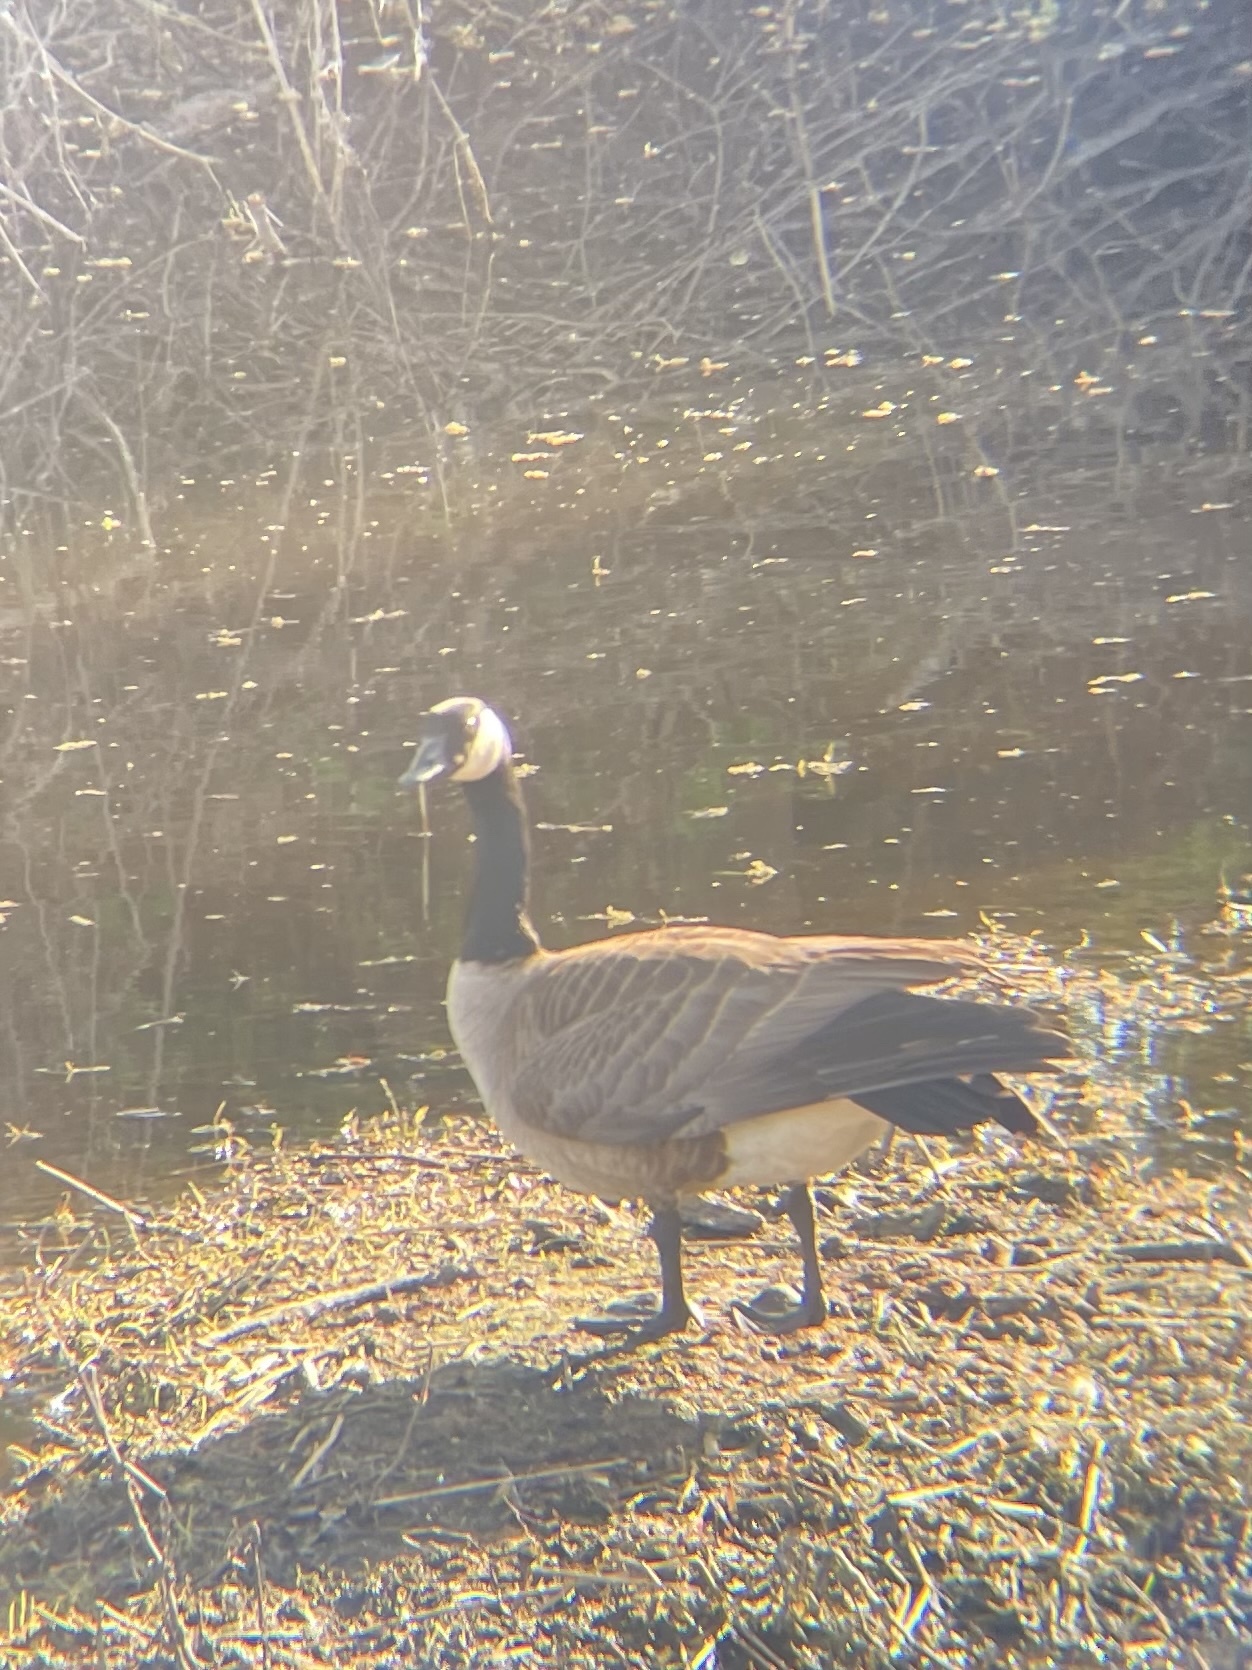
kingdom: Animalia
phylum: Chordata
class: Aves
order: Anseriformes
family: Anatidae
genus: Branta
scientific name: Branta canadensis
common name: Canada goose
